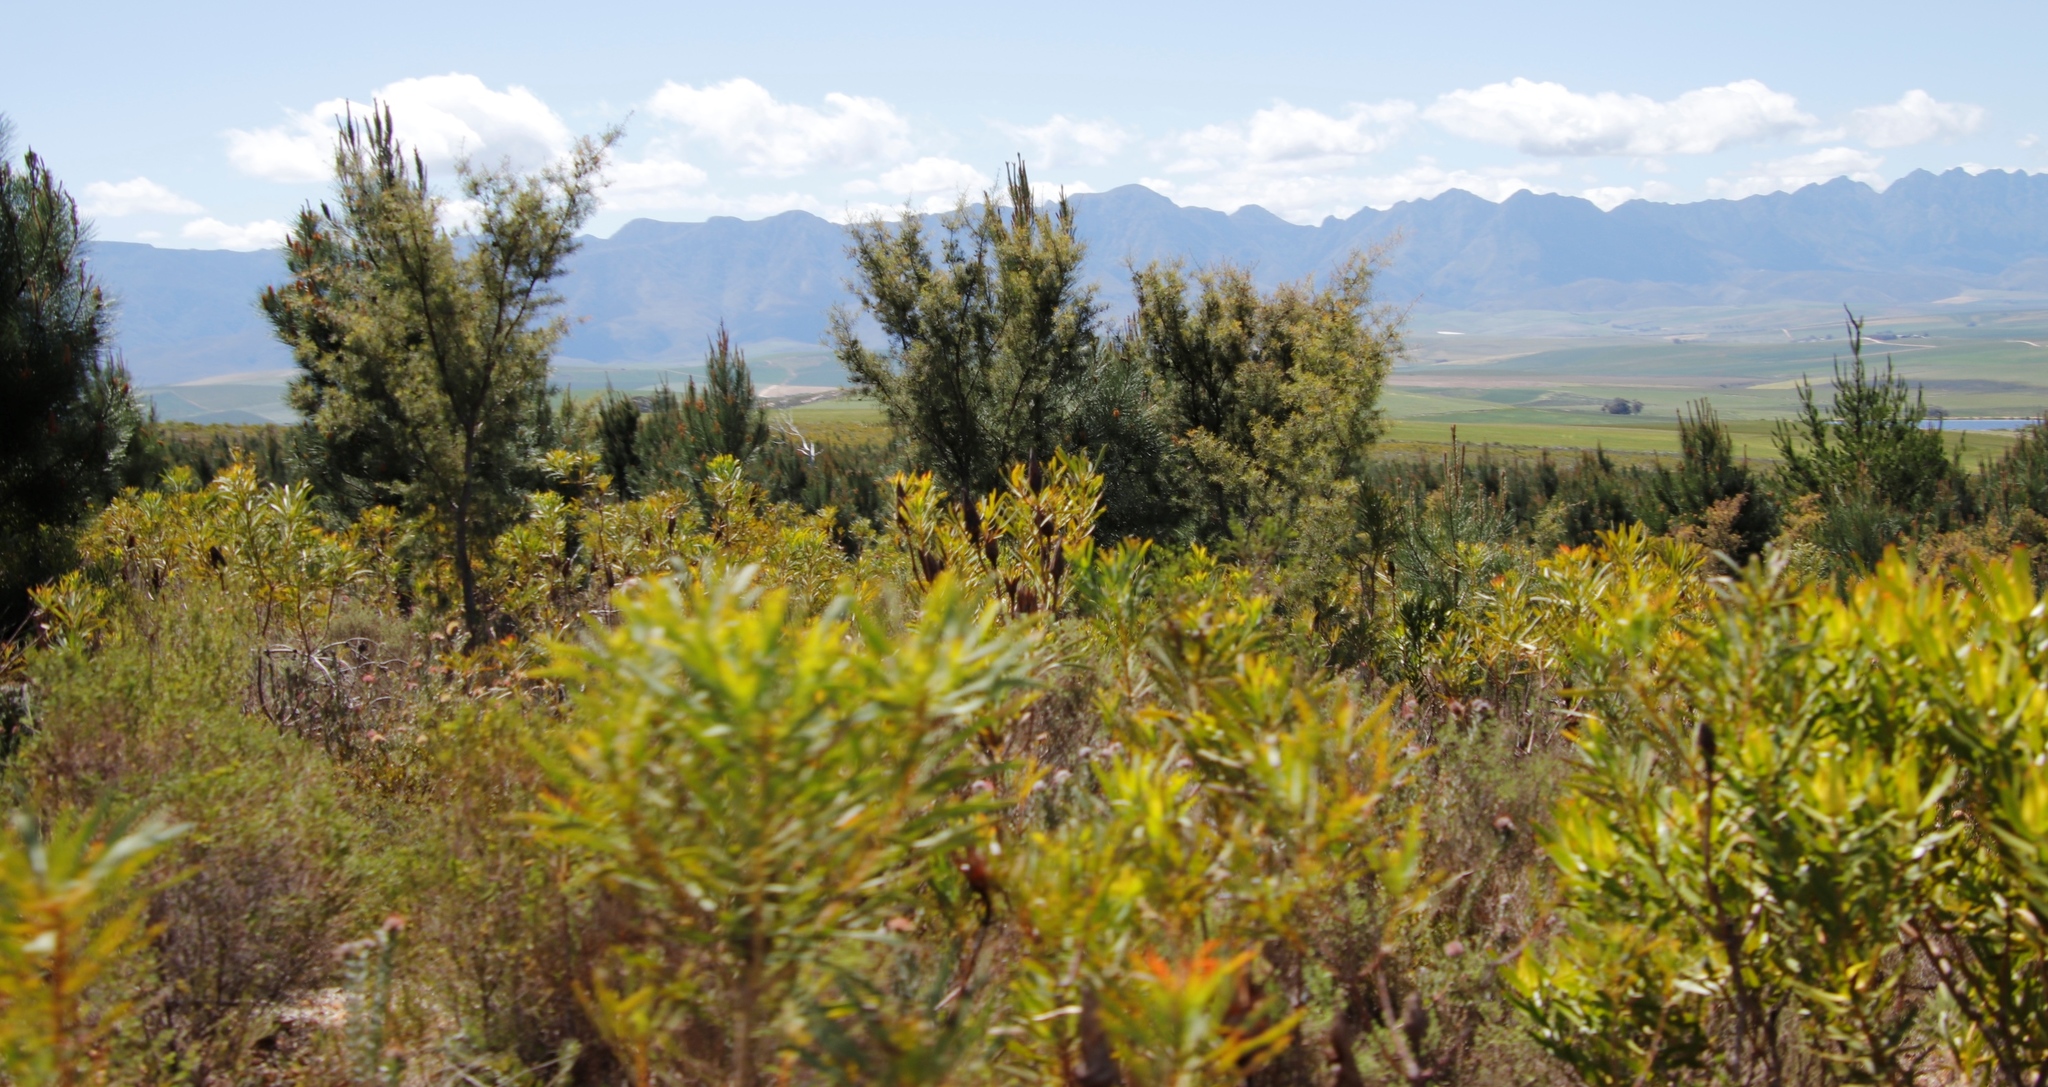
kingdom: Plantae
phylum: Tracheophyta
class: Magnoliopsida
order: Proteales
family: Proteaceae
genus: Hakea
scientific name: Hakea sericea
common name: Needle bush
